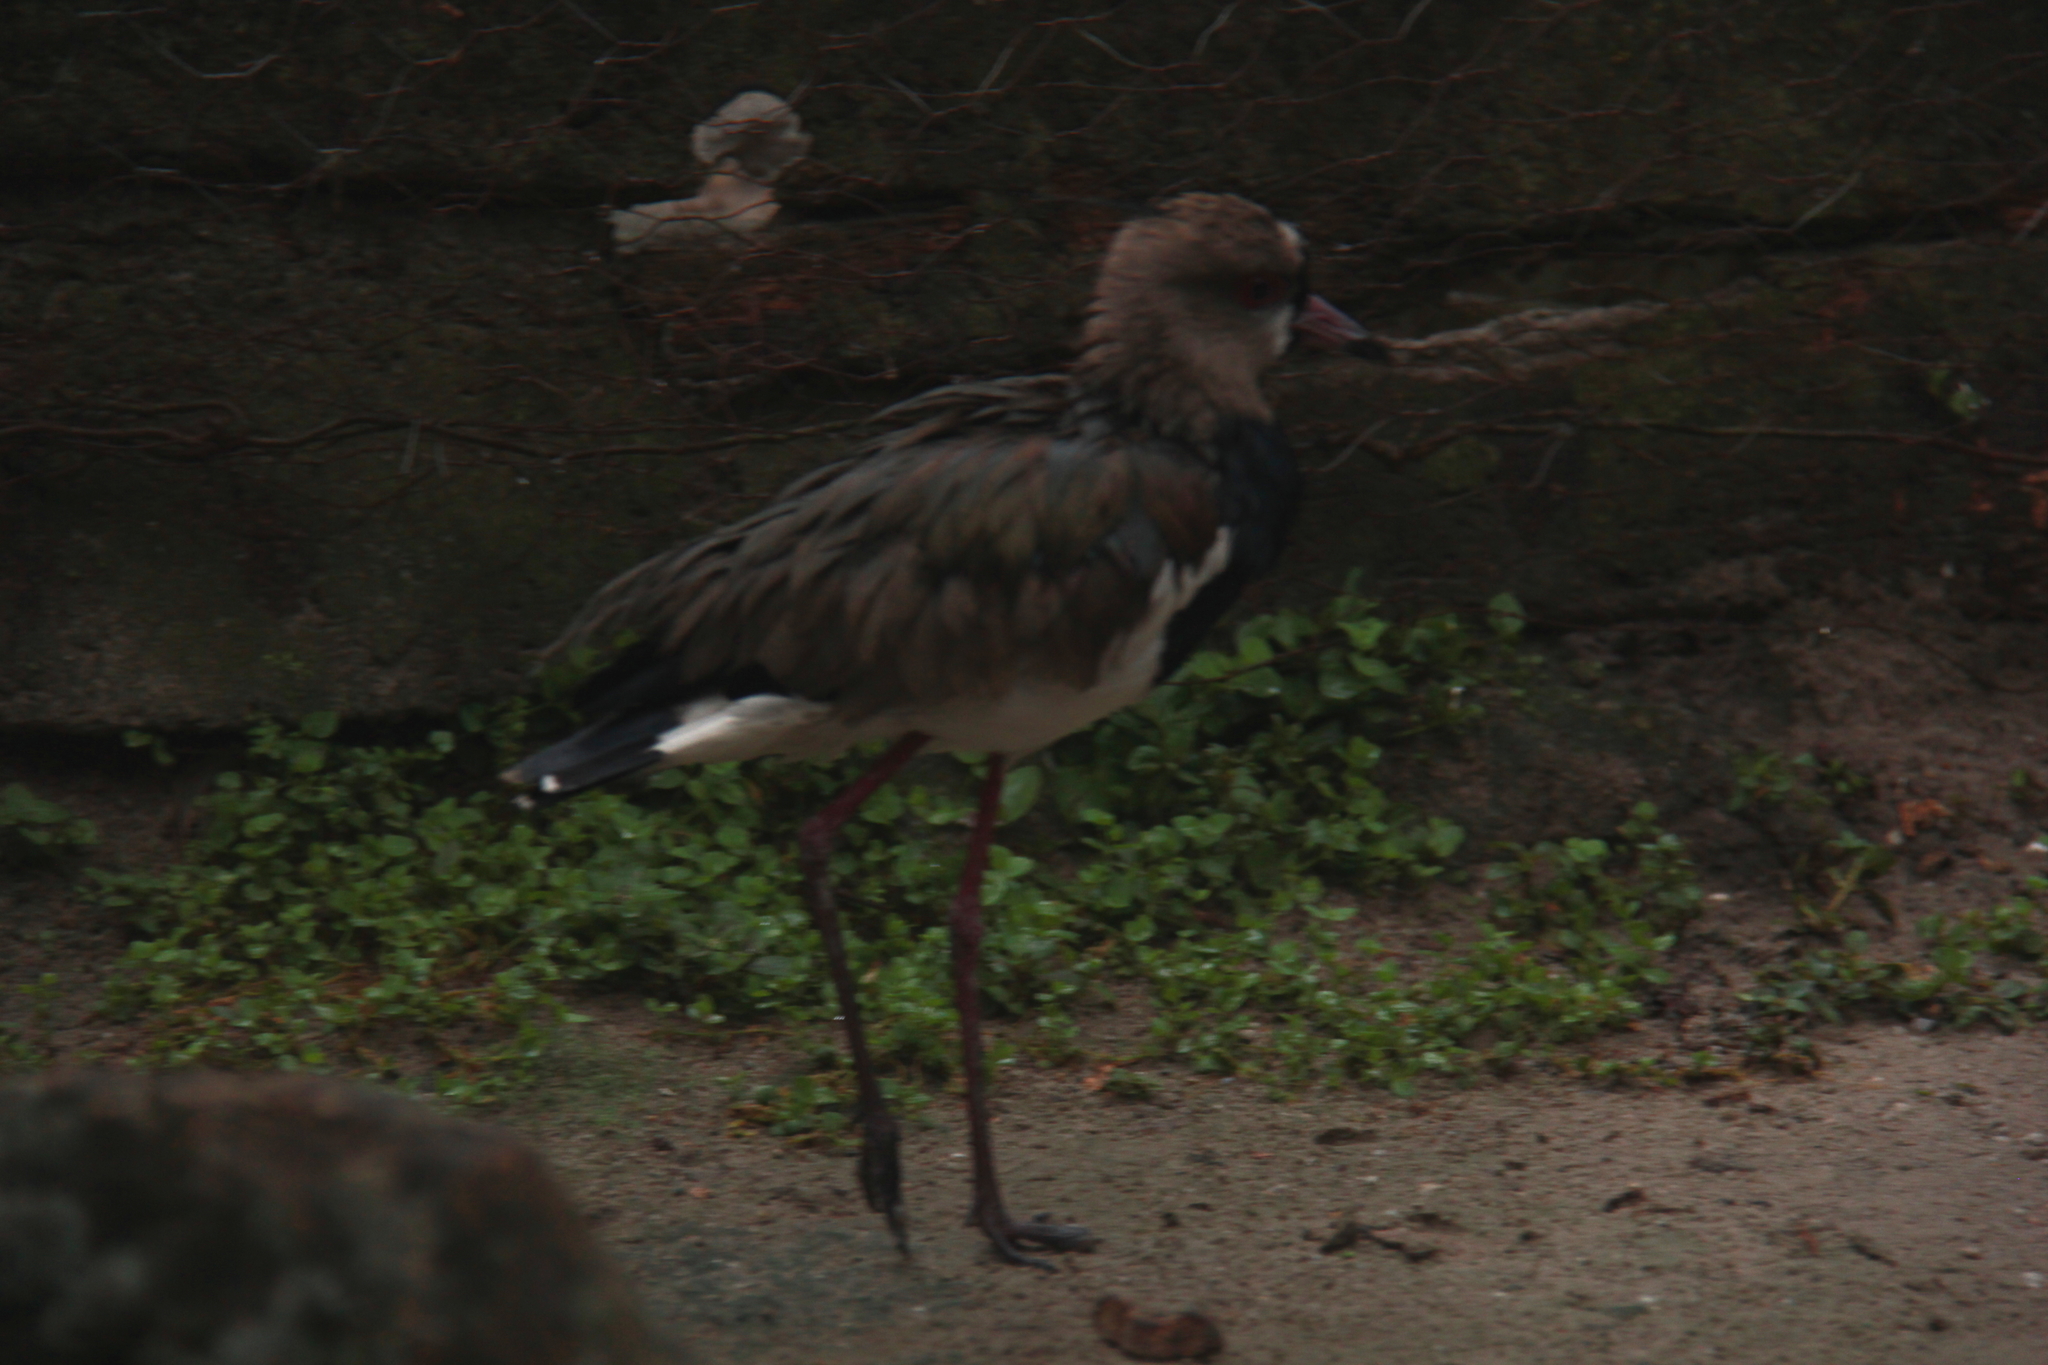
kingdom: Animalia
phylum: Chordata
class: Aves
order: Charadriiformes
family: Charadriidae
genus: Vanellus
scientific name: Vanellus chilensis
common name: Southern lapwing
